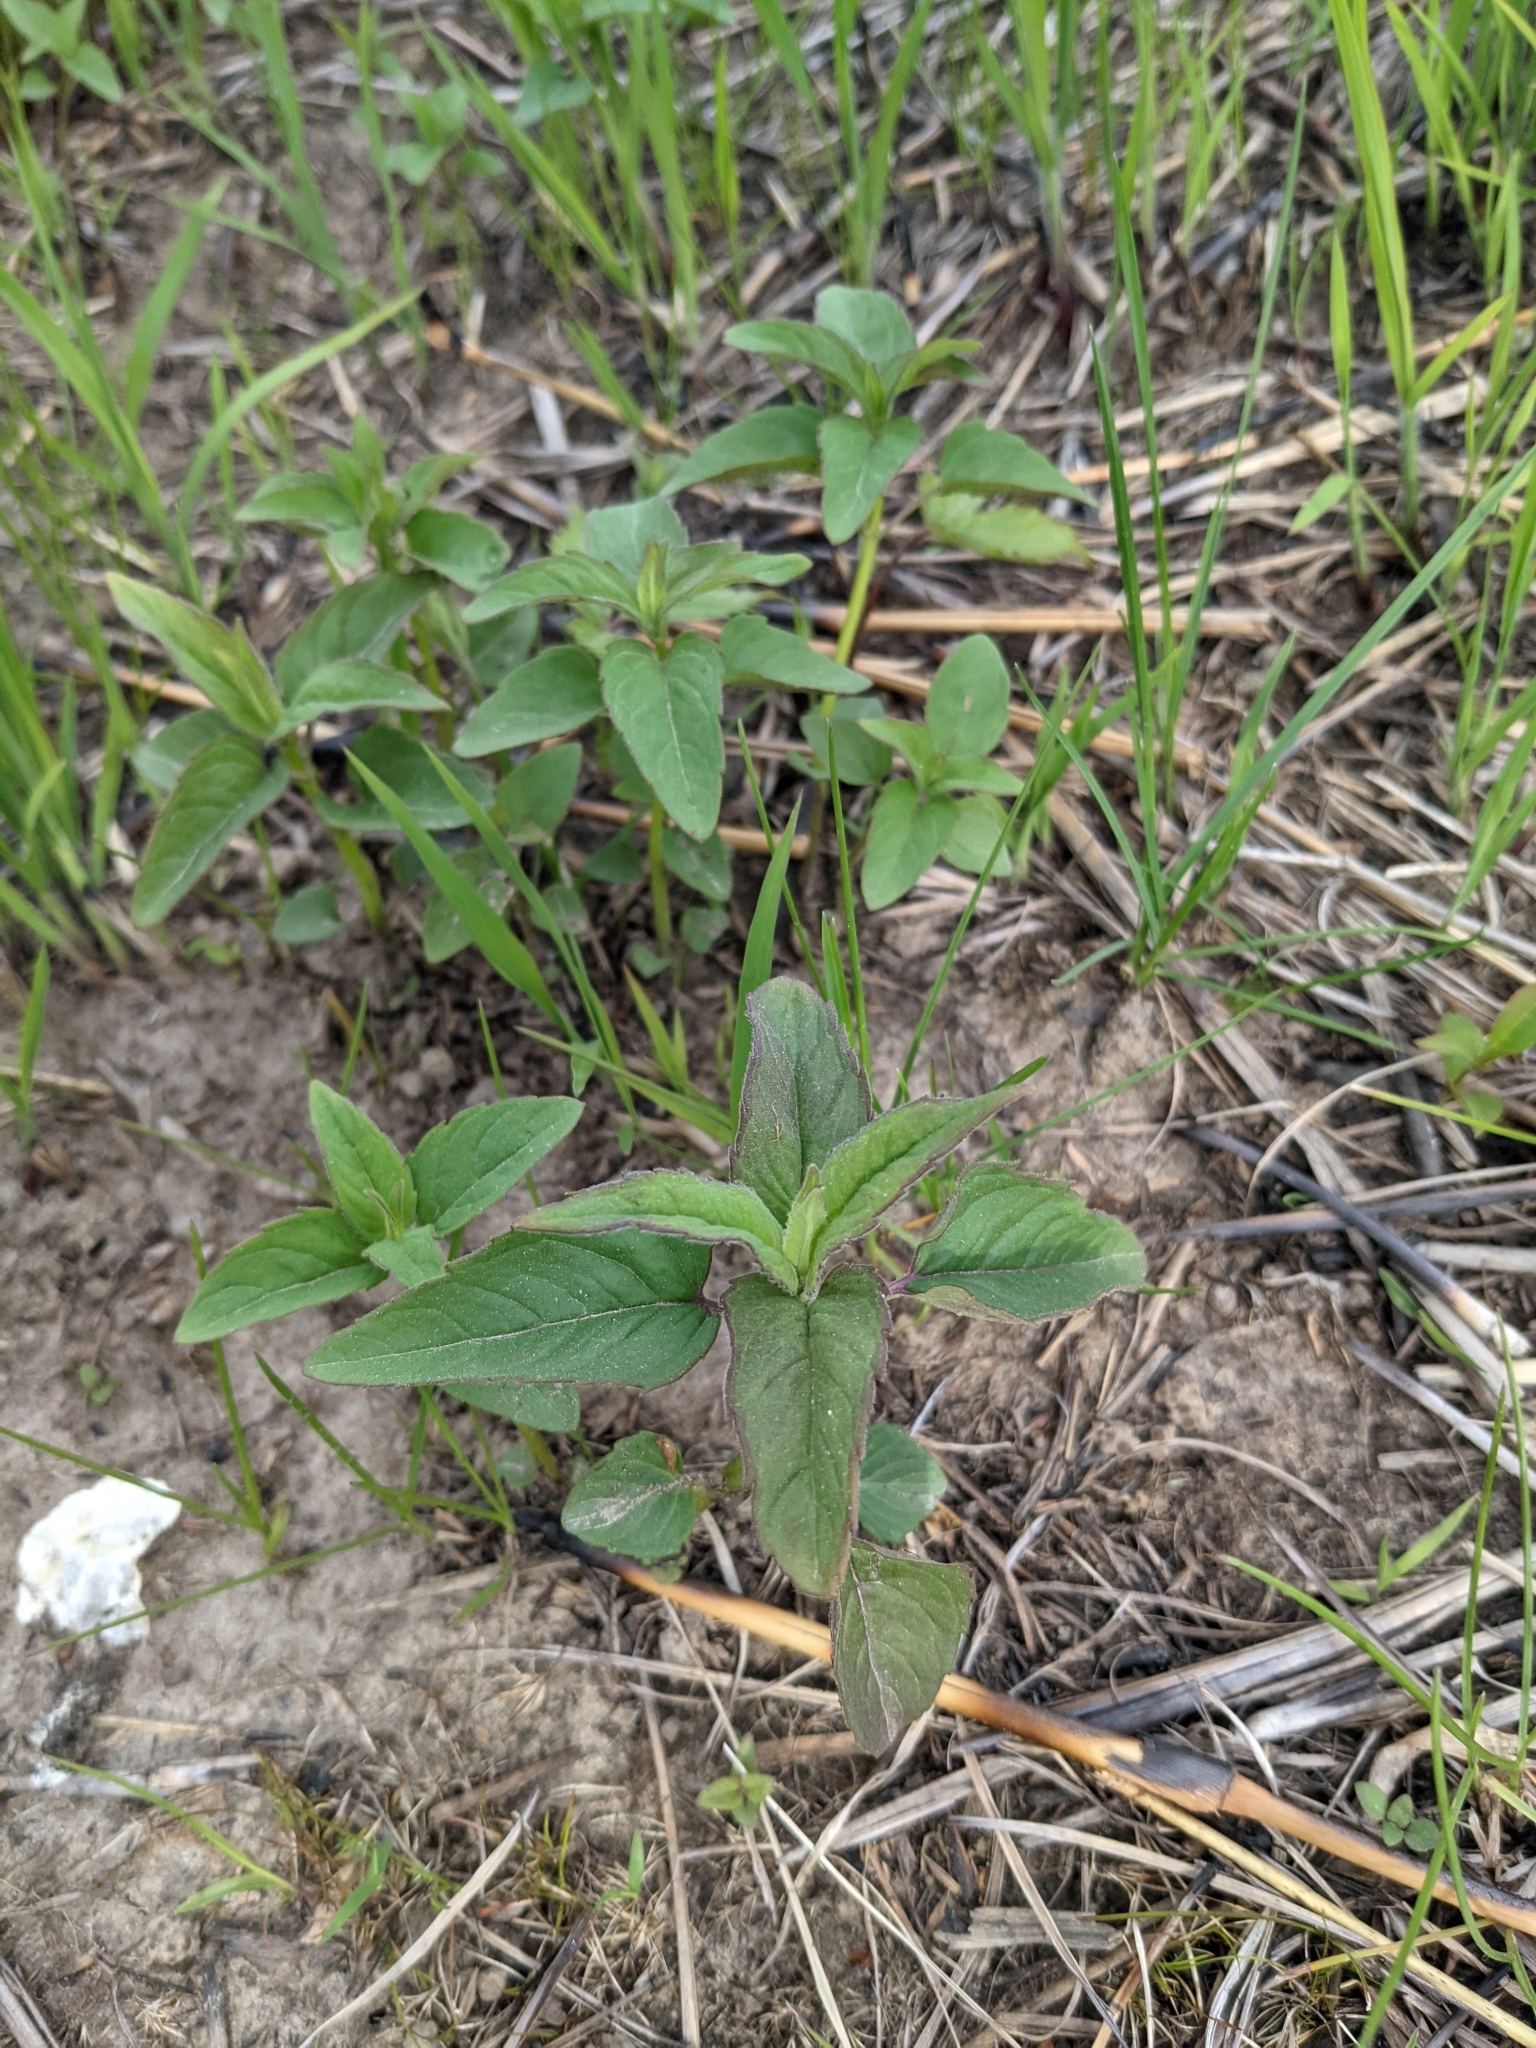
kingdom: Plantae
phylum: Tracheophyta
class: Magnoliopsida
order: Lamiales
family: Lamiaceae
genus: Monarda
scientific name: Monarda fistulosa
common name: Purple beebalm
